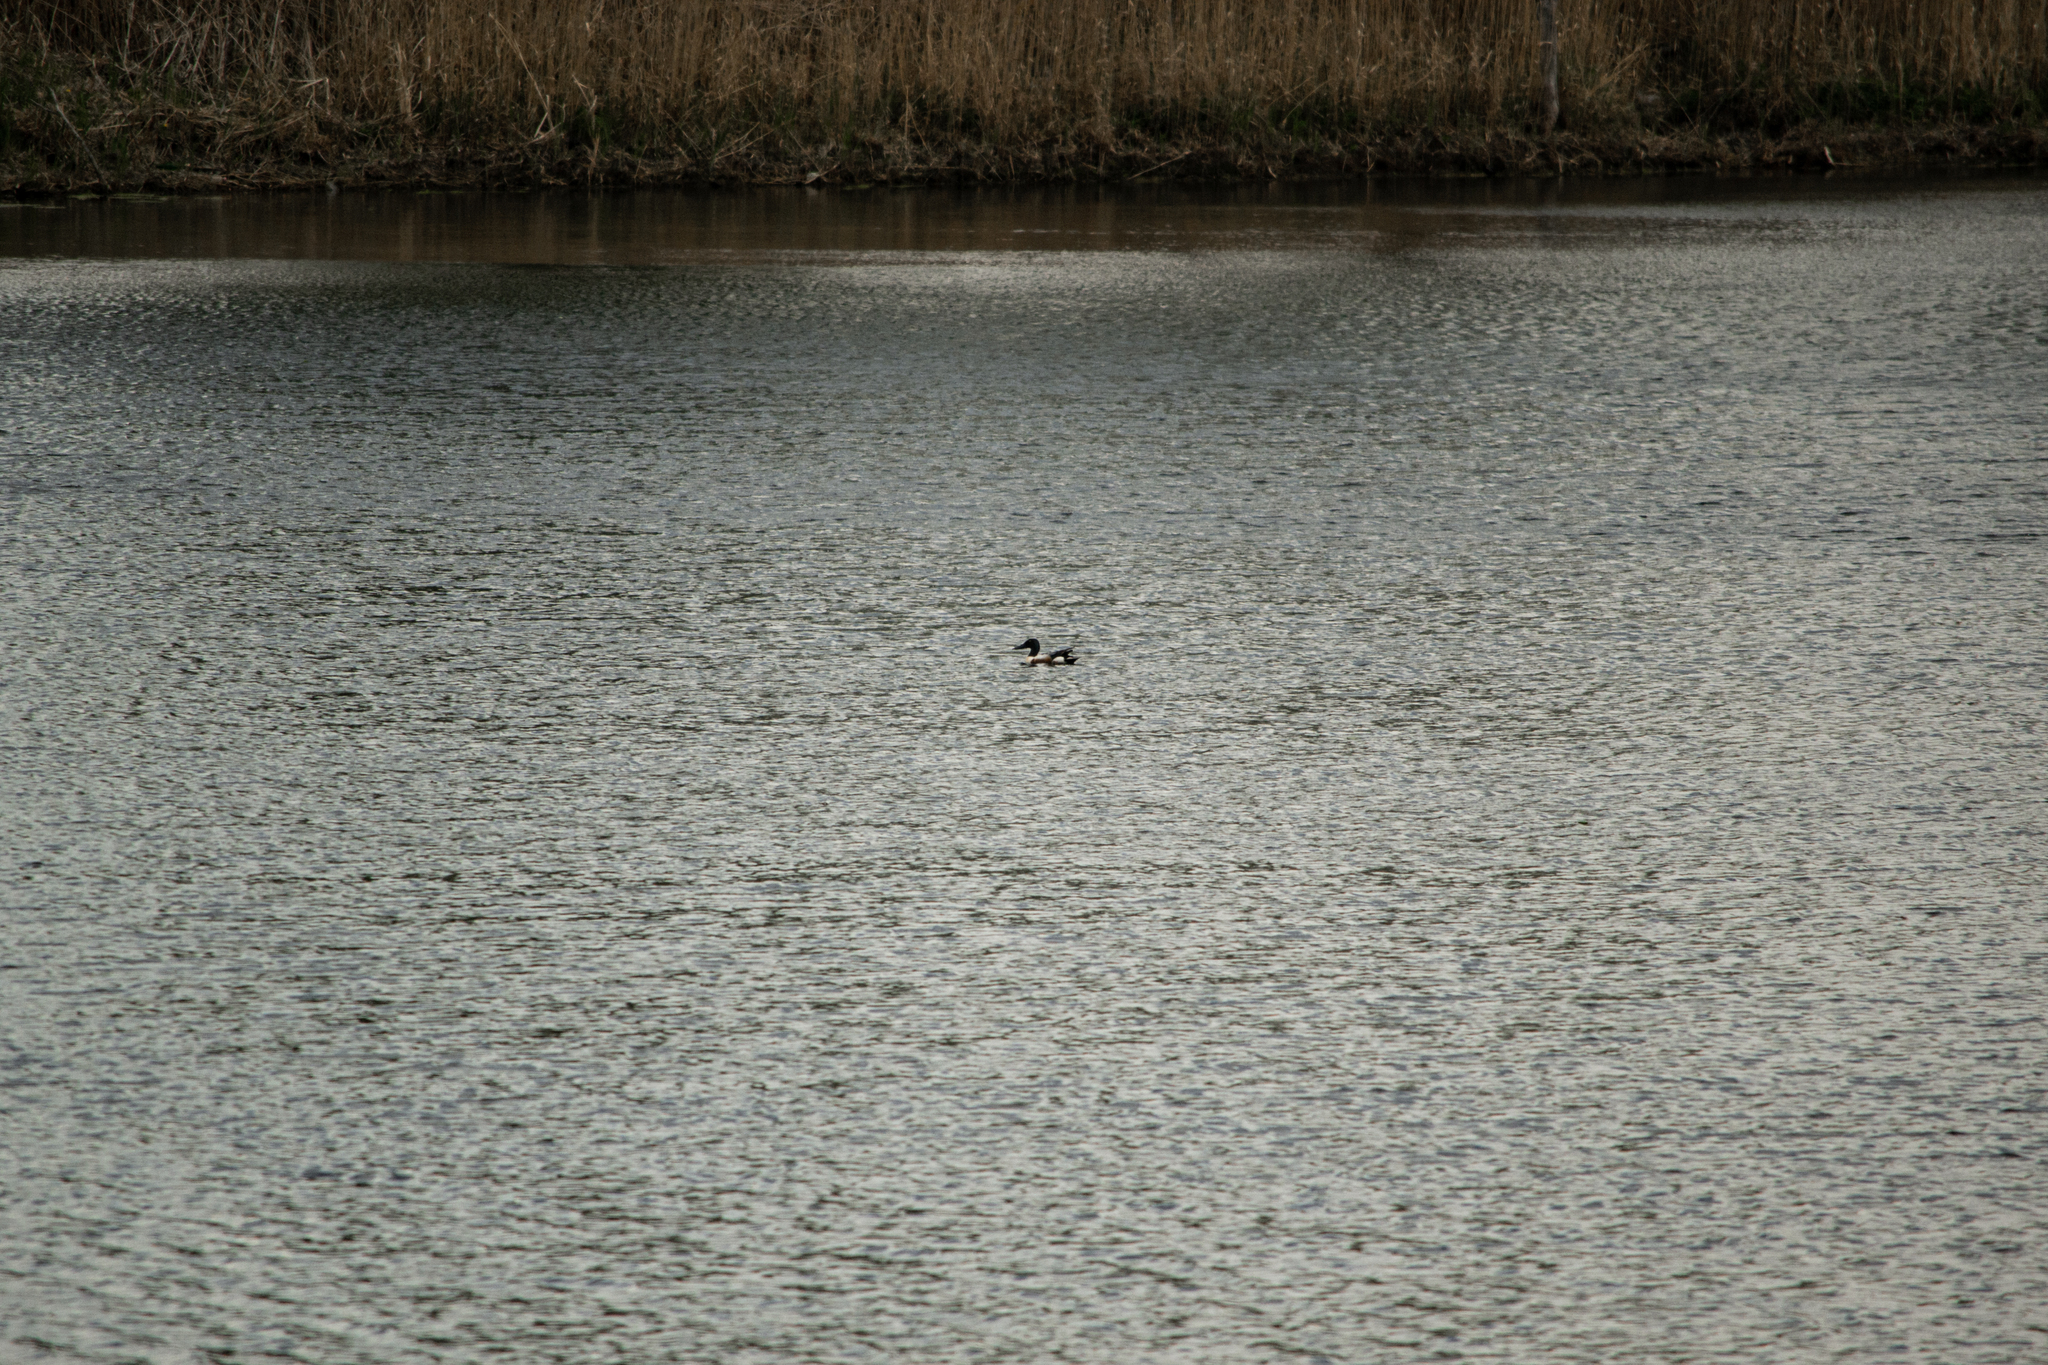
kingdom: Animalia
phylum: Chordata
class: Aves
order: Anseriformes
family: Anatidae
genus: Spatula
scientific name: Spatula clypeata
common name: Northern shoveler
